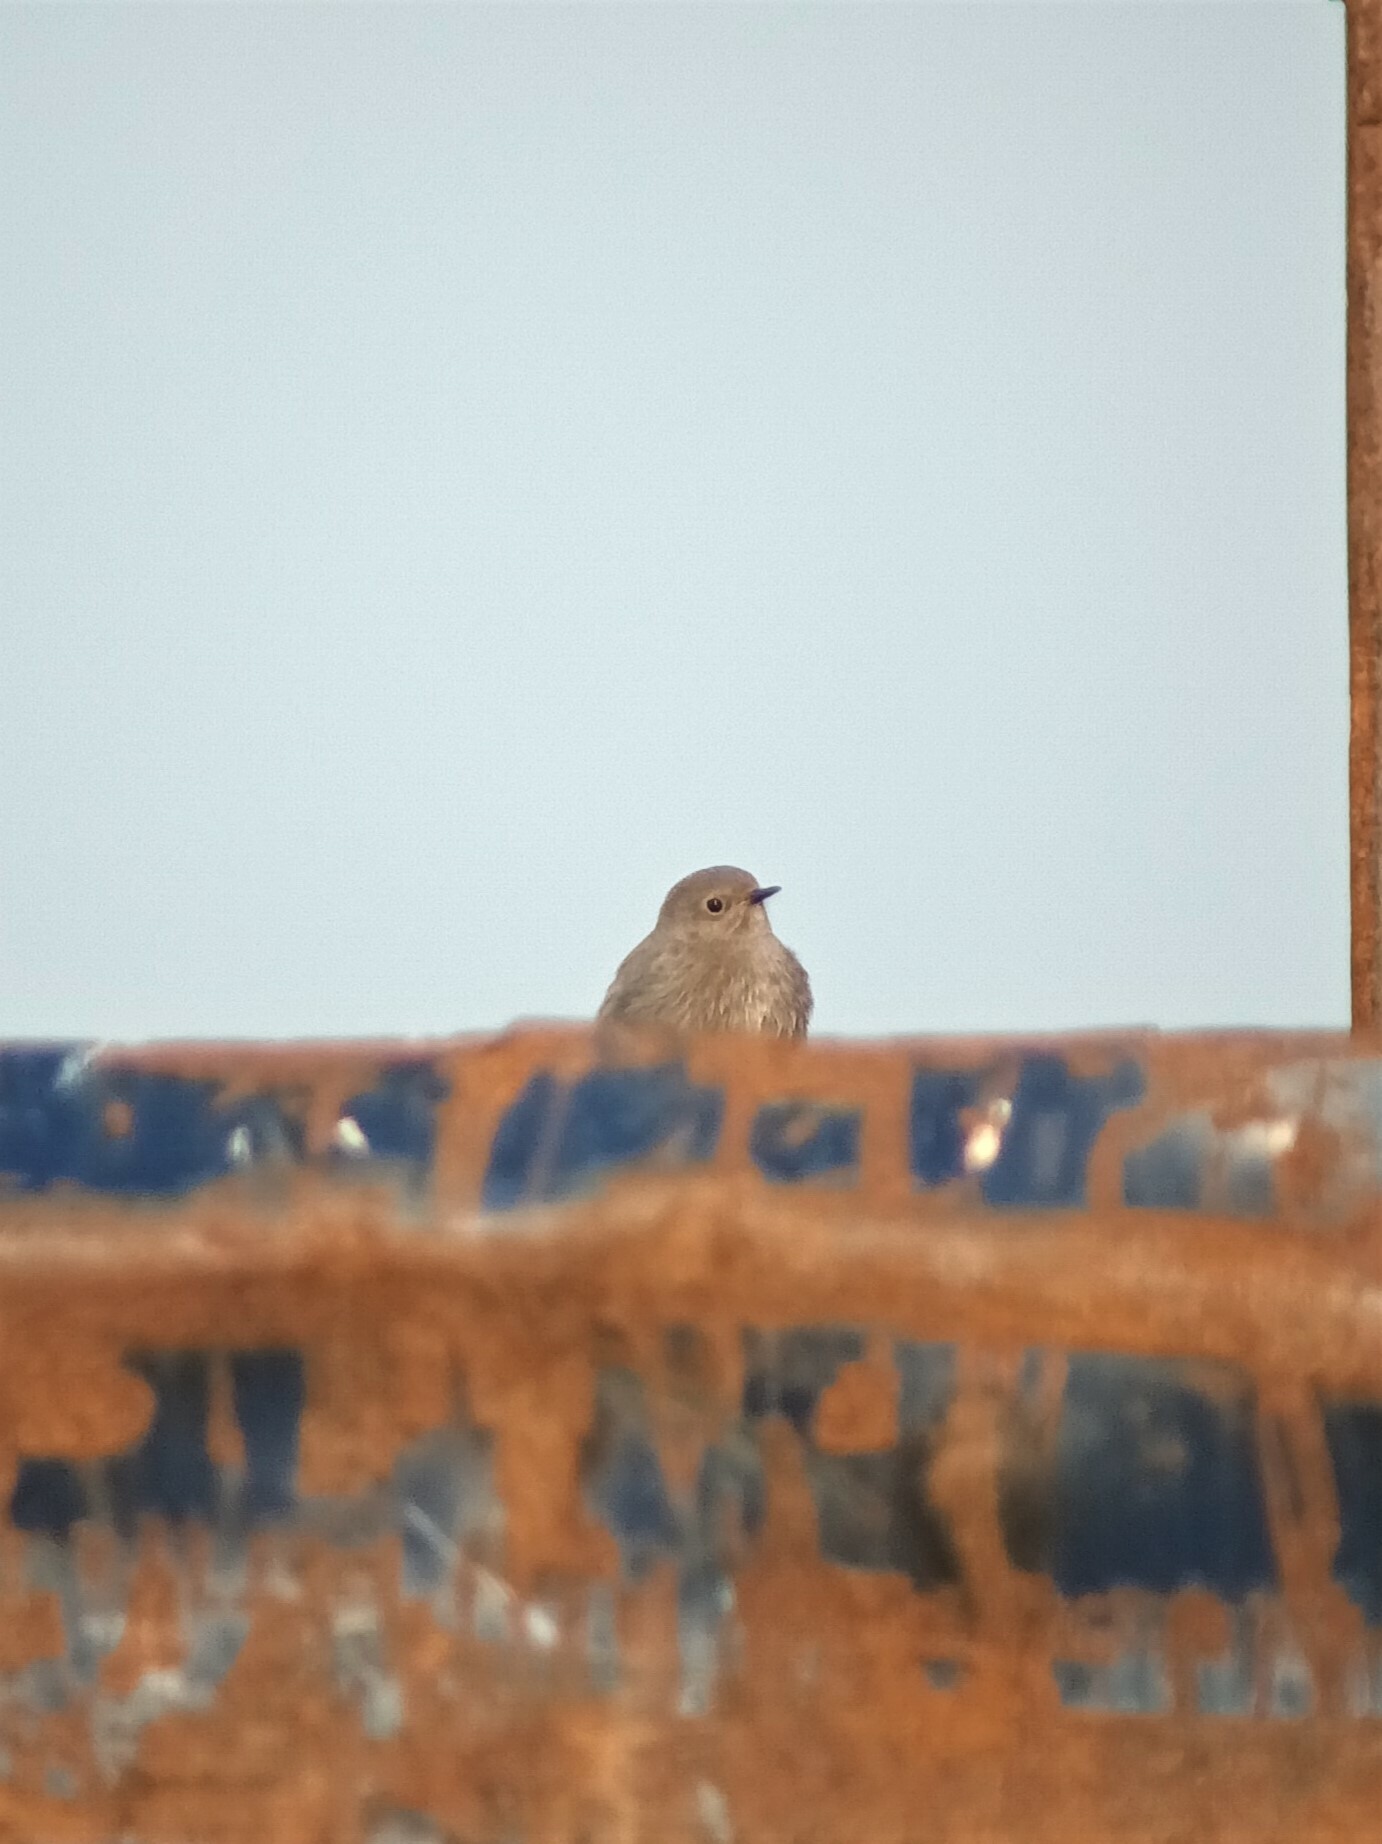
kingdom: Animalia
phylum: Chordata
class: Aves
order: Passeriformes
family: Muscicapidae
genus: Phoenicurus
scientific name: Phoenicurus ochruros
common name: Black redstart
